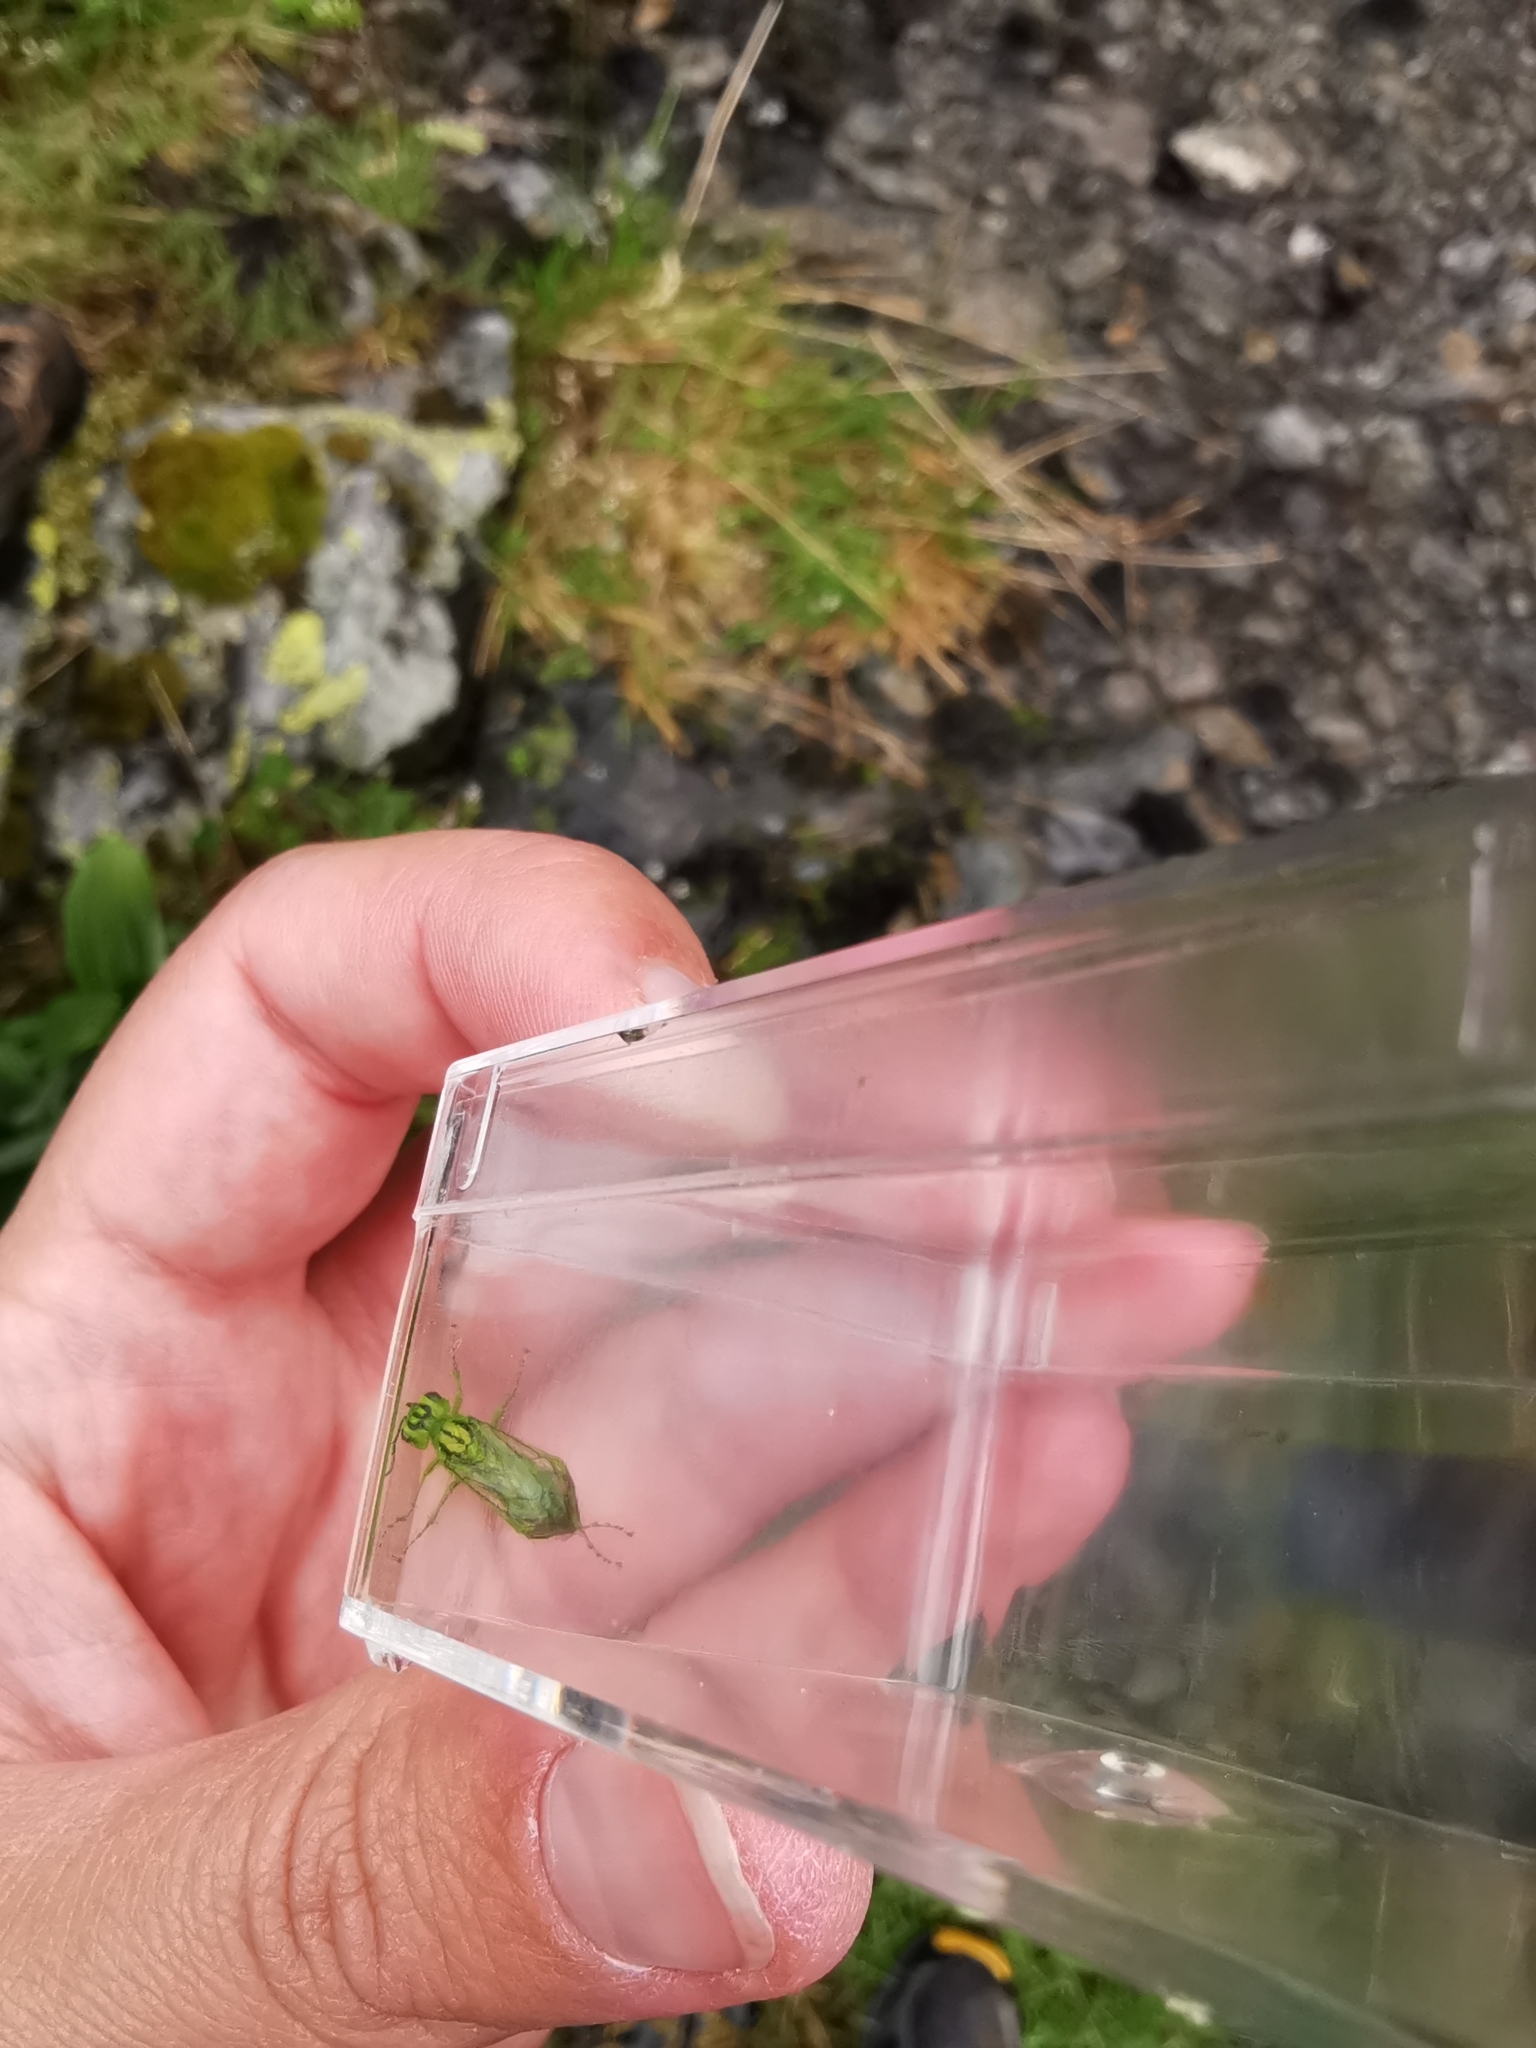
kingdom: Animalia
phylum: Arthropoda
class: Insecta
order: Hymenoptera
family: Tenthredinidae
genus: Rhogogaster
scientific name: Rhogogaster punctulata
